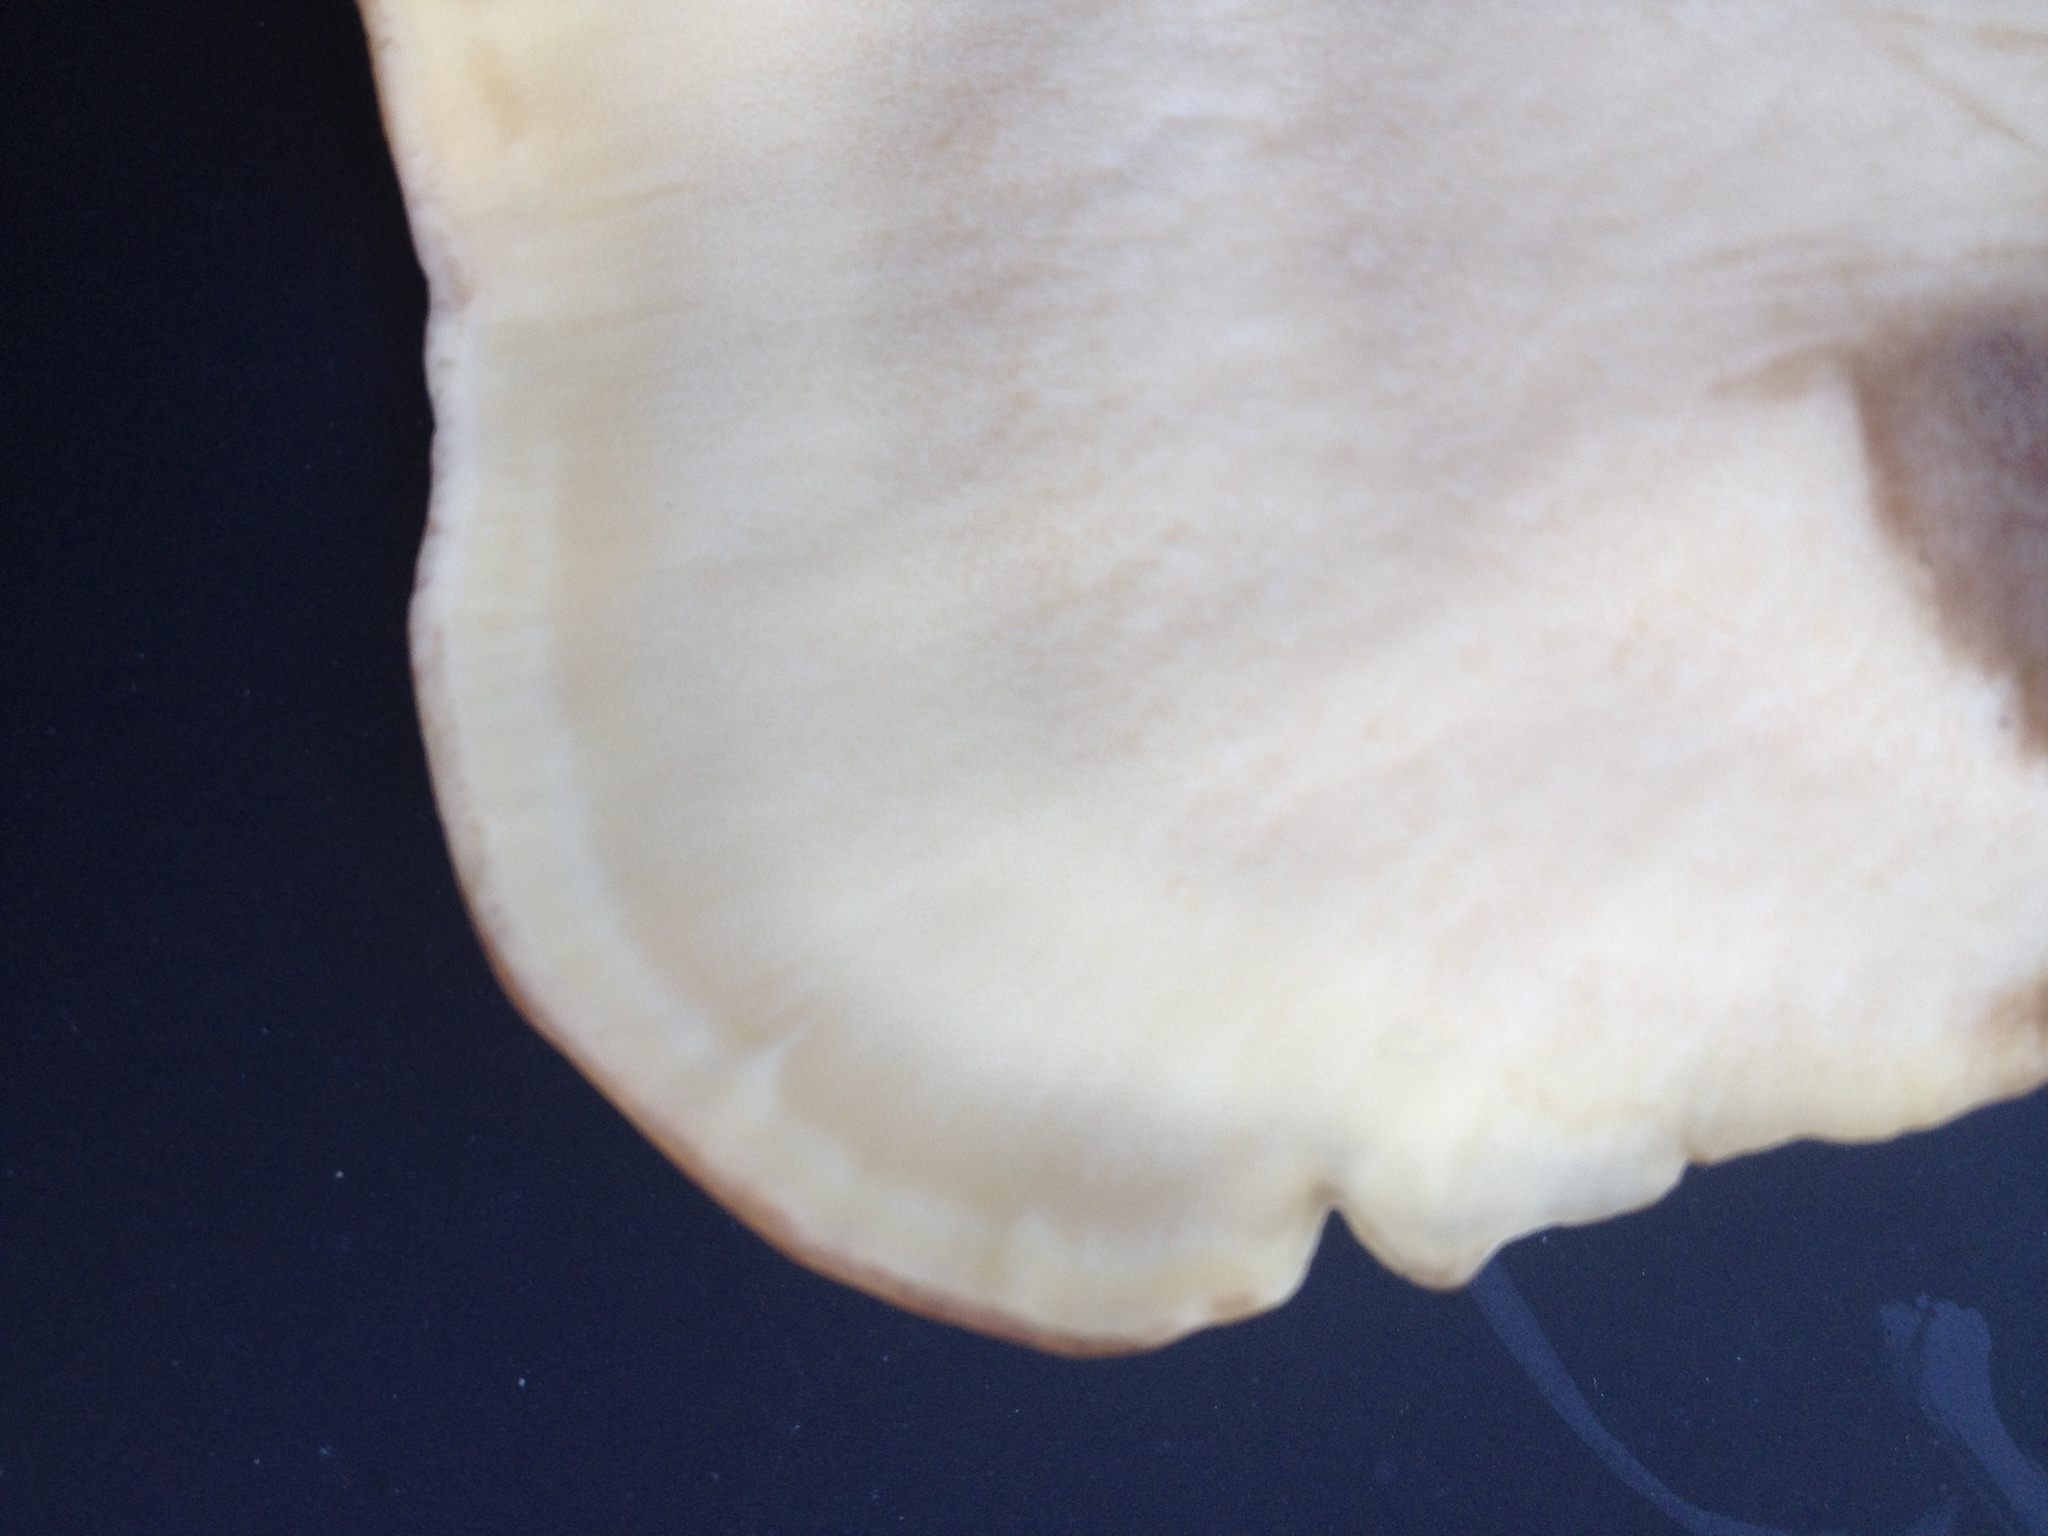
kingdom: Fungi
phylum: Basidiomycota
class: Agaricomycetes
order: Polyporales
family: Meripilaceae
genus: Meripilus
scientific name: Meripilus giganteus
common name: Giant polypore
